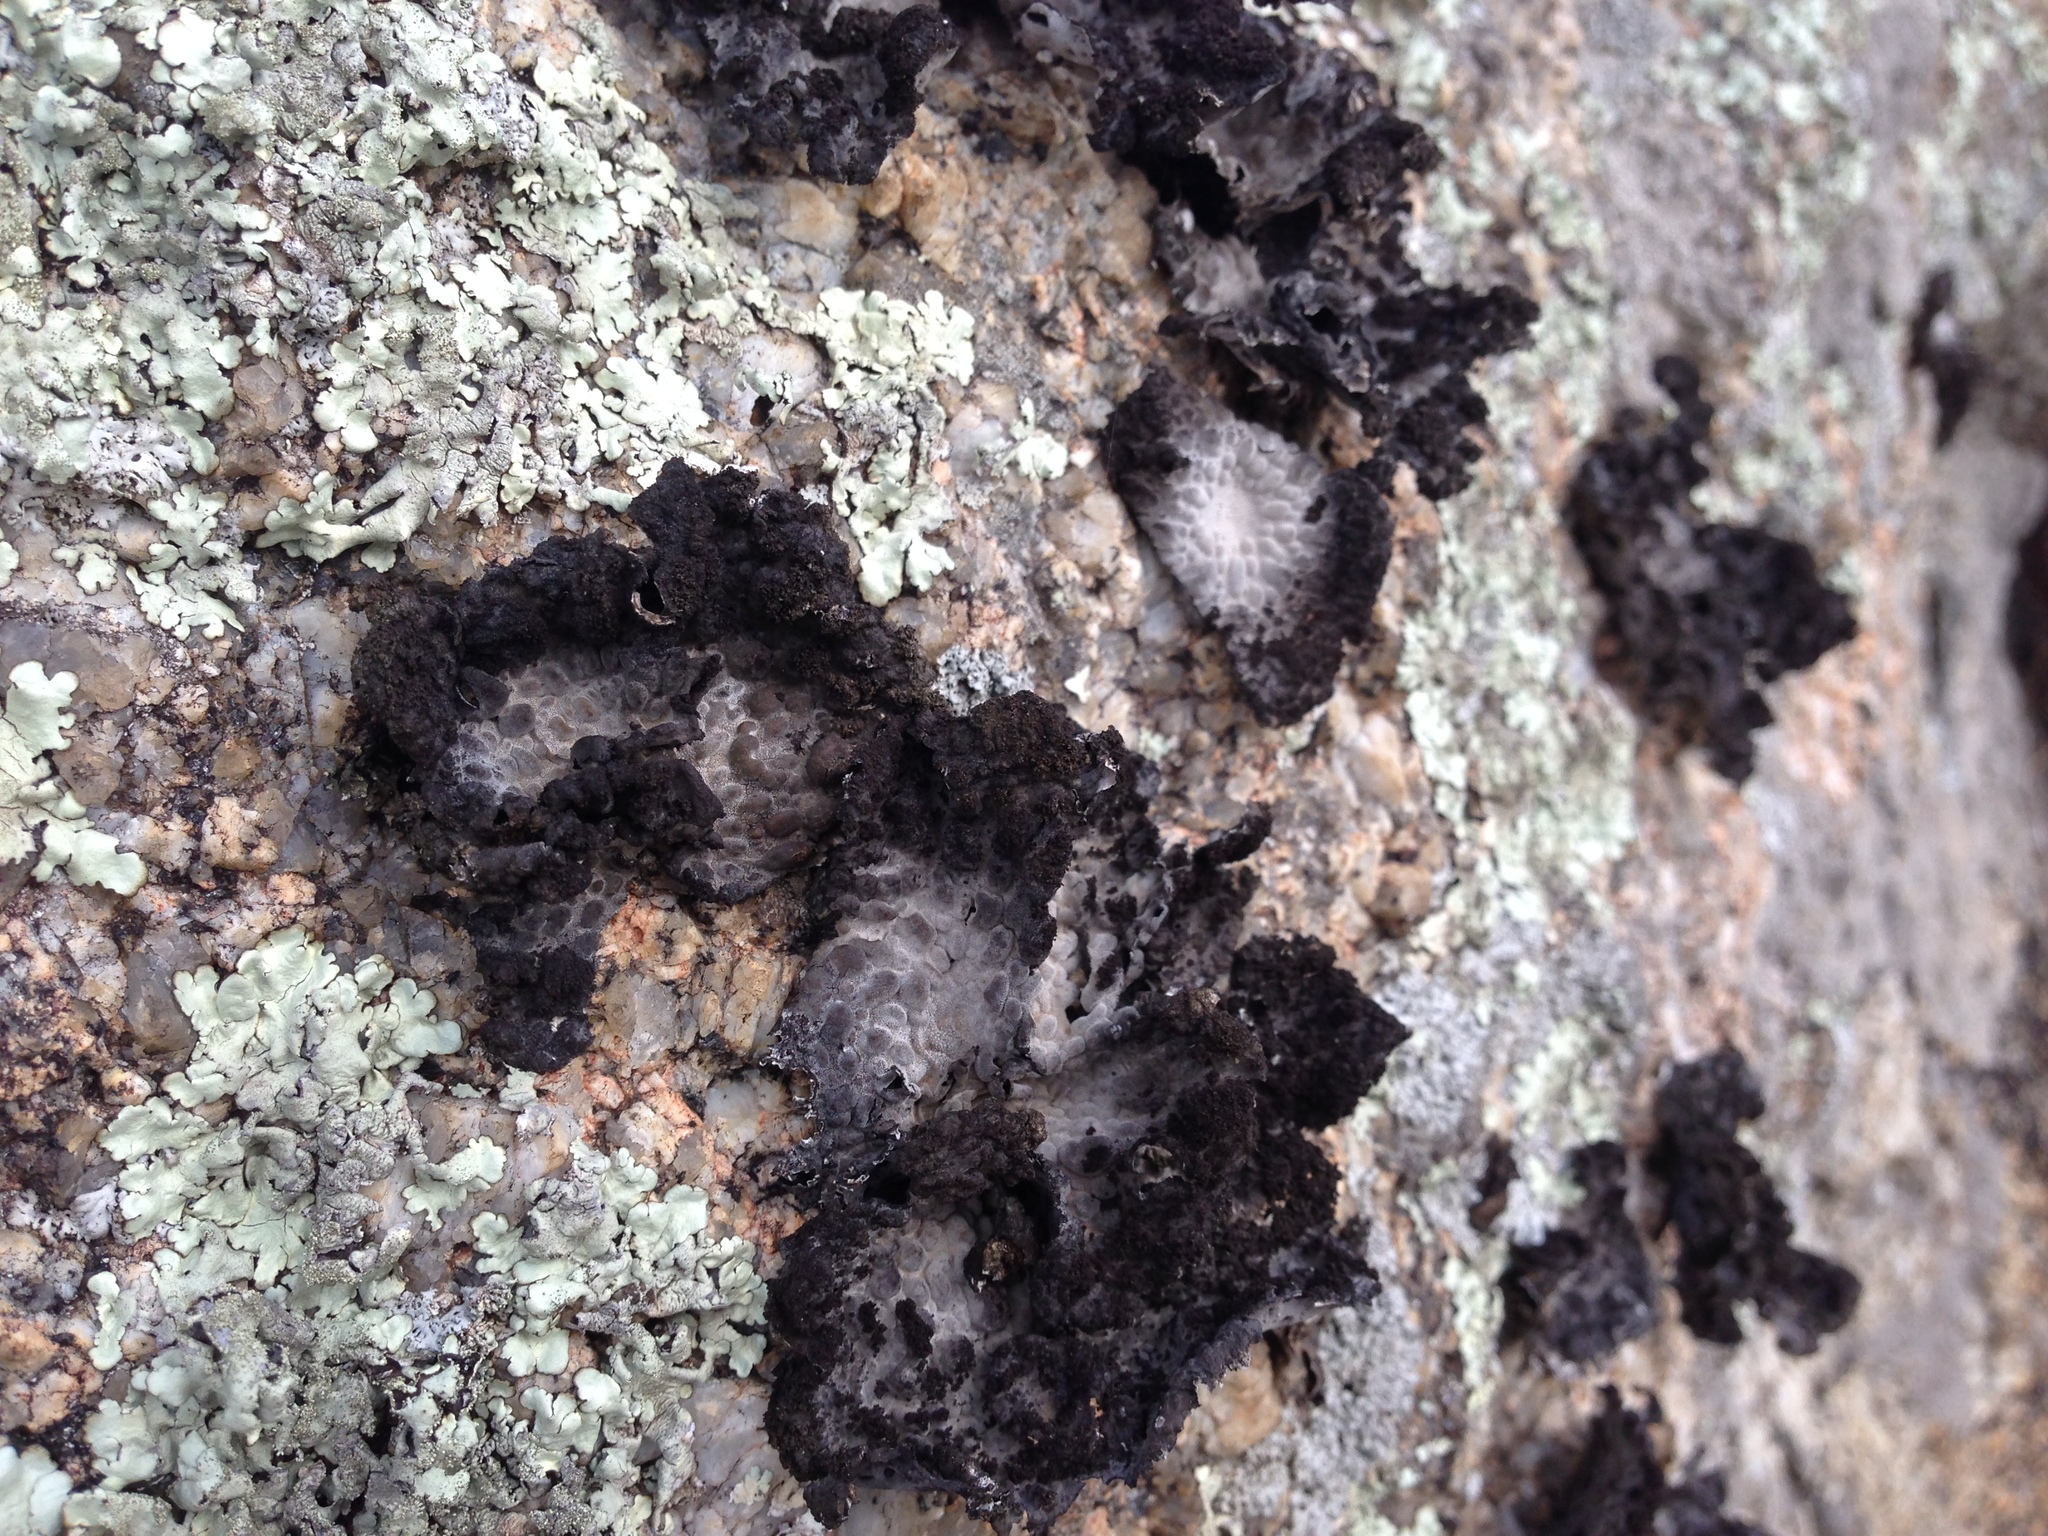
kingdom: Fungi
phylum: Ascomycota
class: Lecanoromycetes
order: Umbilicariales
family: Umbilicariaceae
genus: Lasallia
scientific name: Lasallia pustulata
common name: Blistered toadskin lichen
